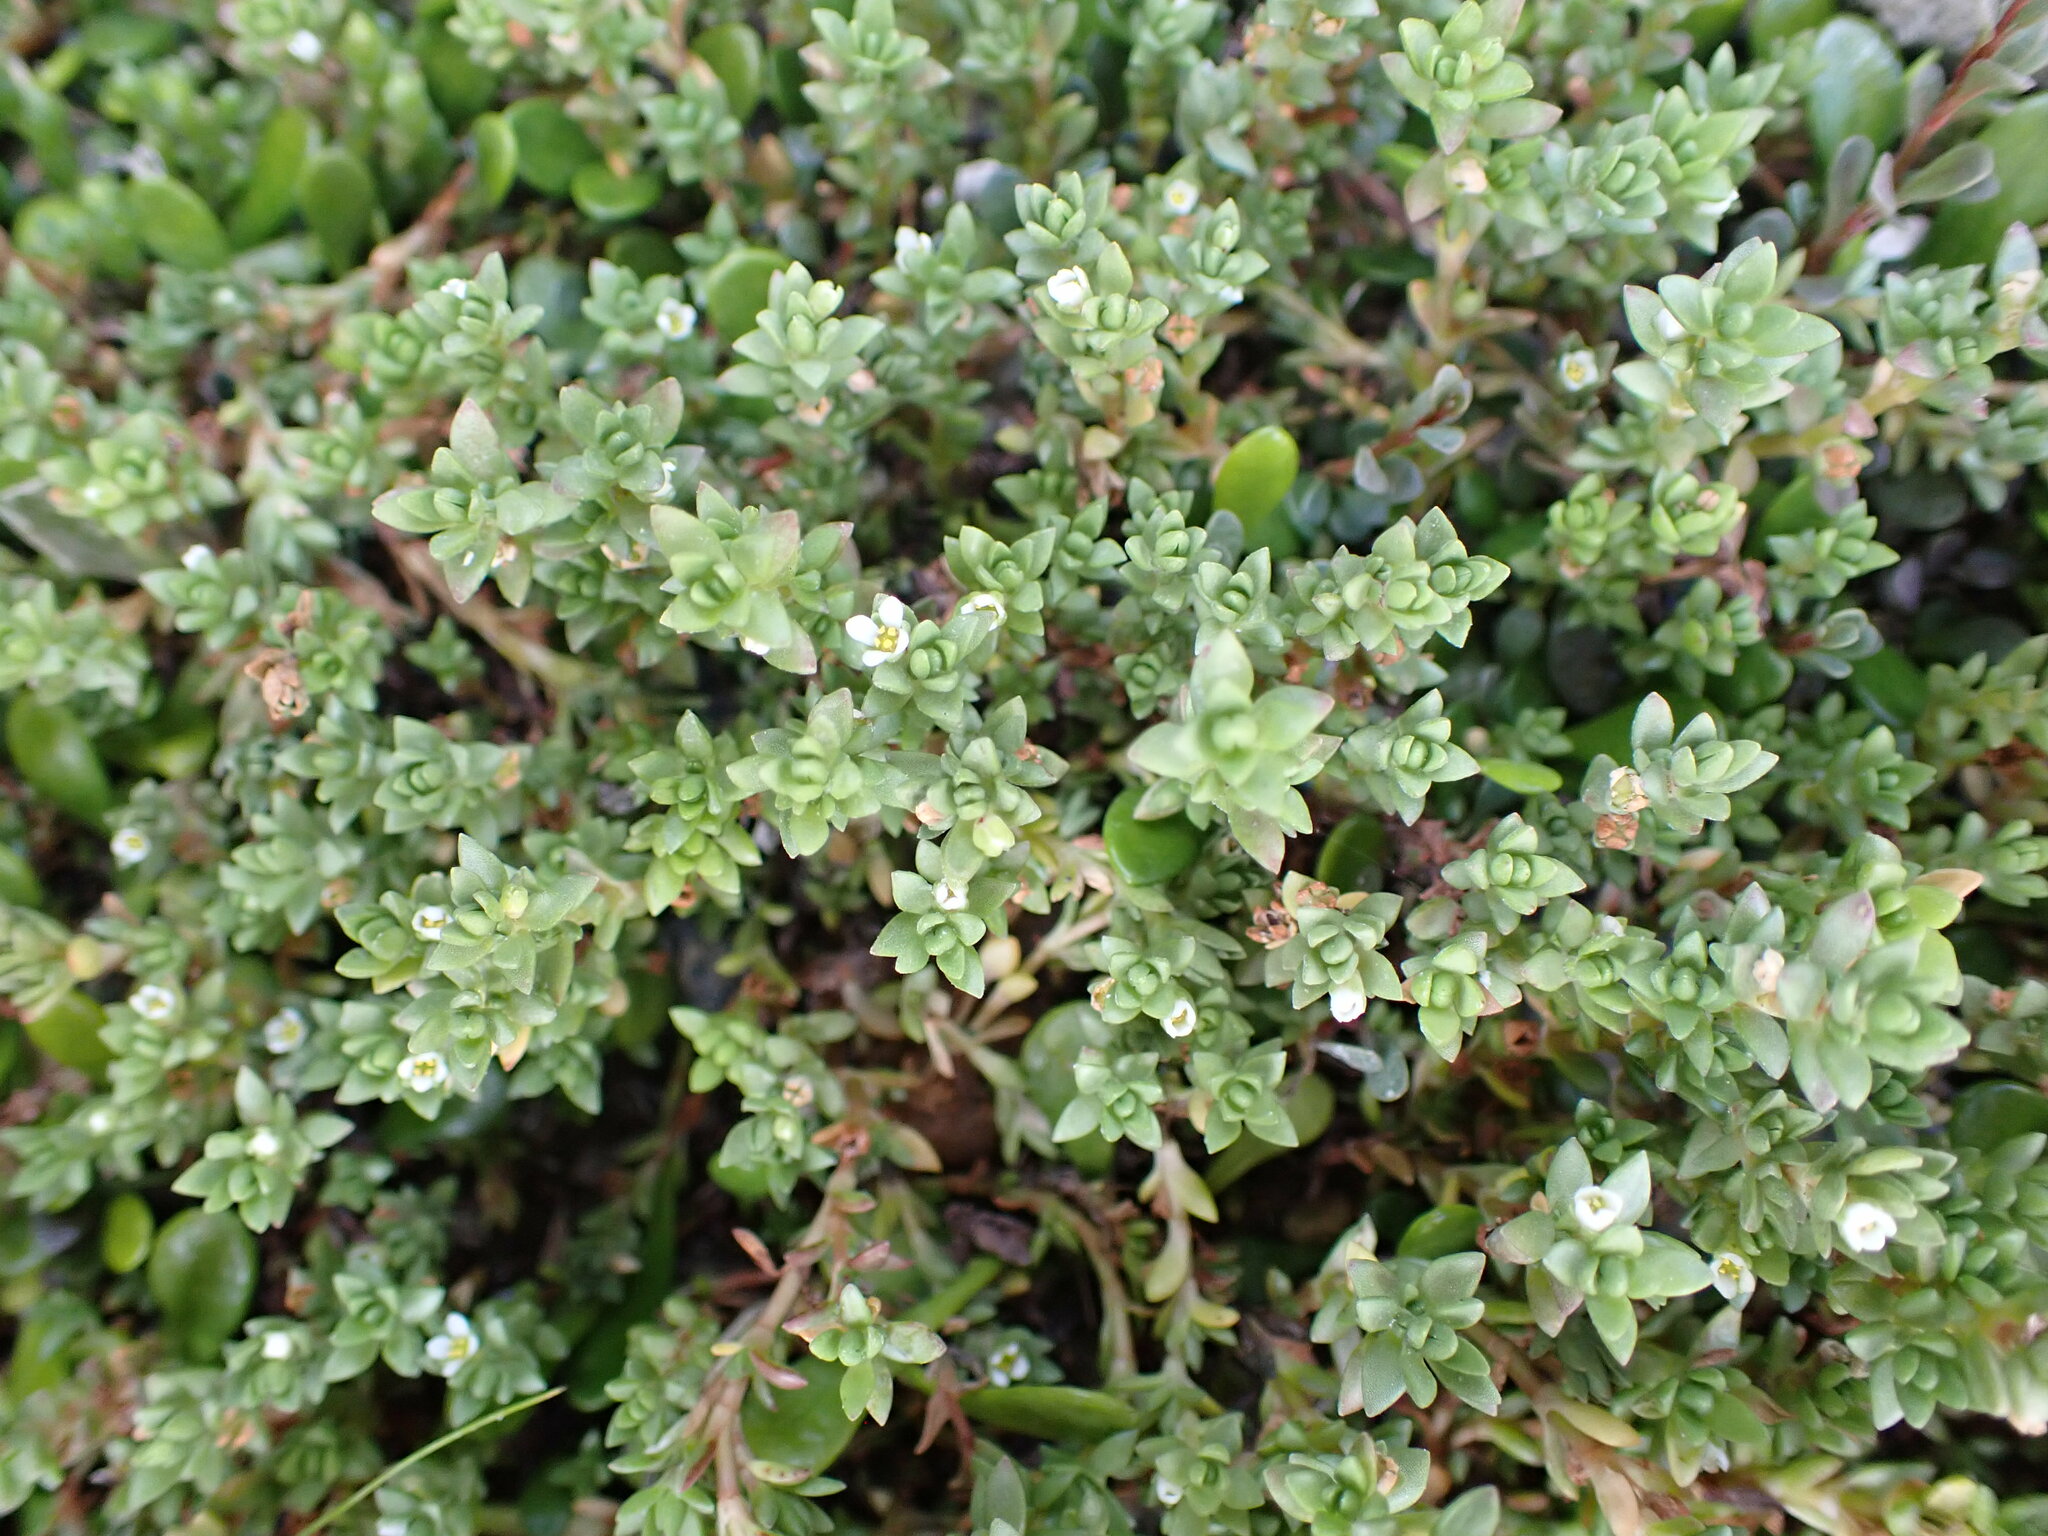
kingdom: Plantae
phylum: Tracheophyta
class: Magnoliopsida
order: Saxifragales
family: Crassulaceae
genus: Crassula
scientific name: Crassula moschata
